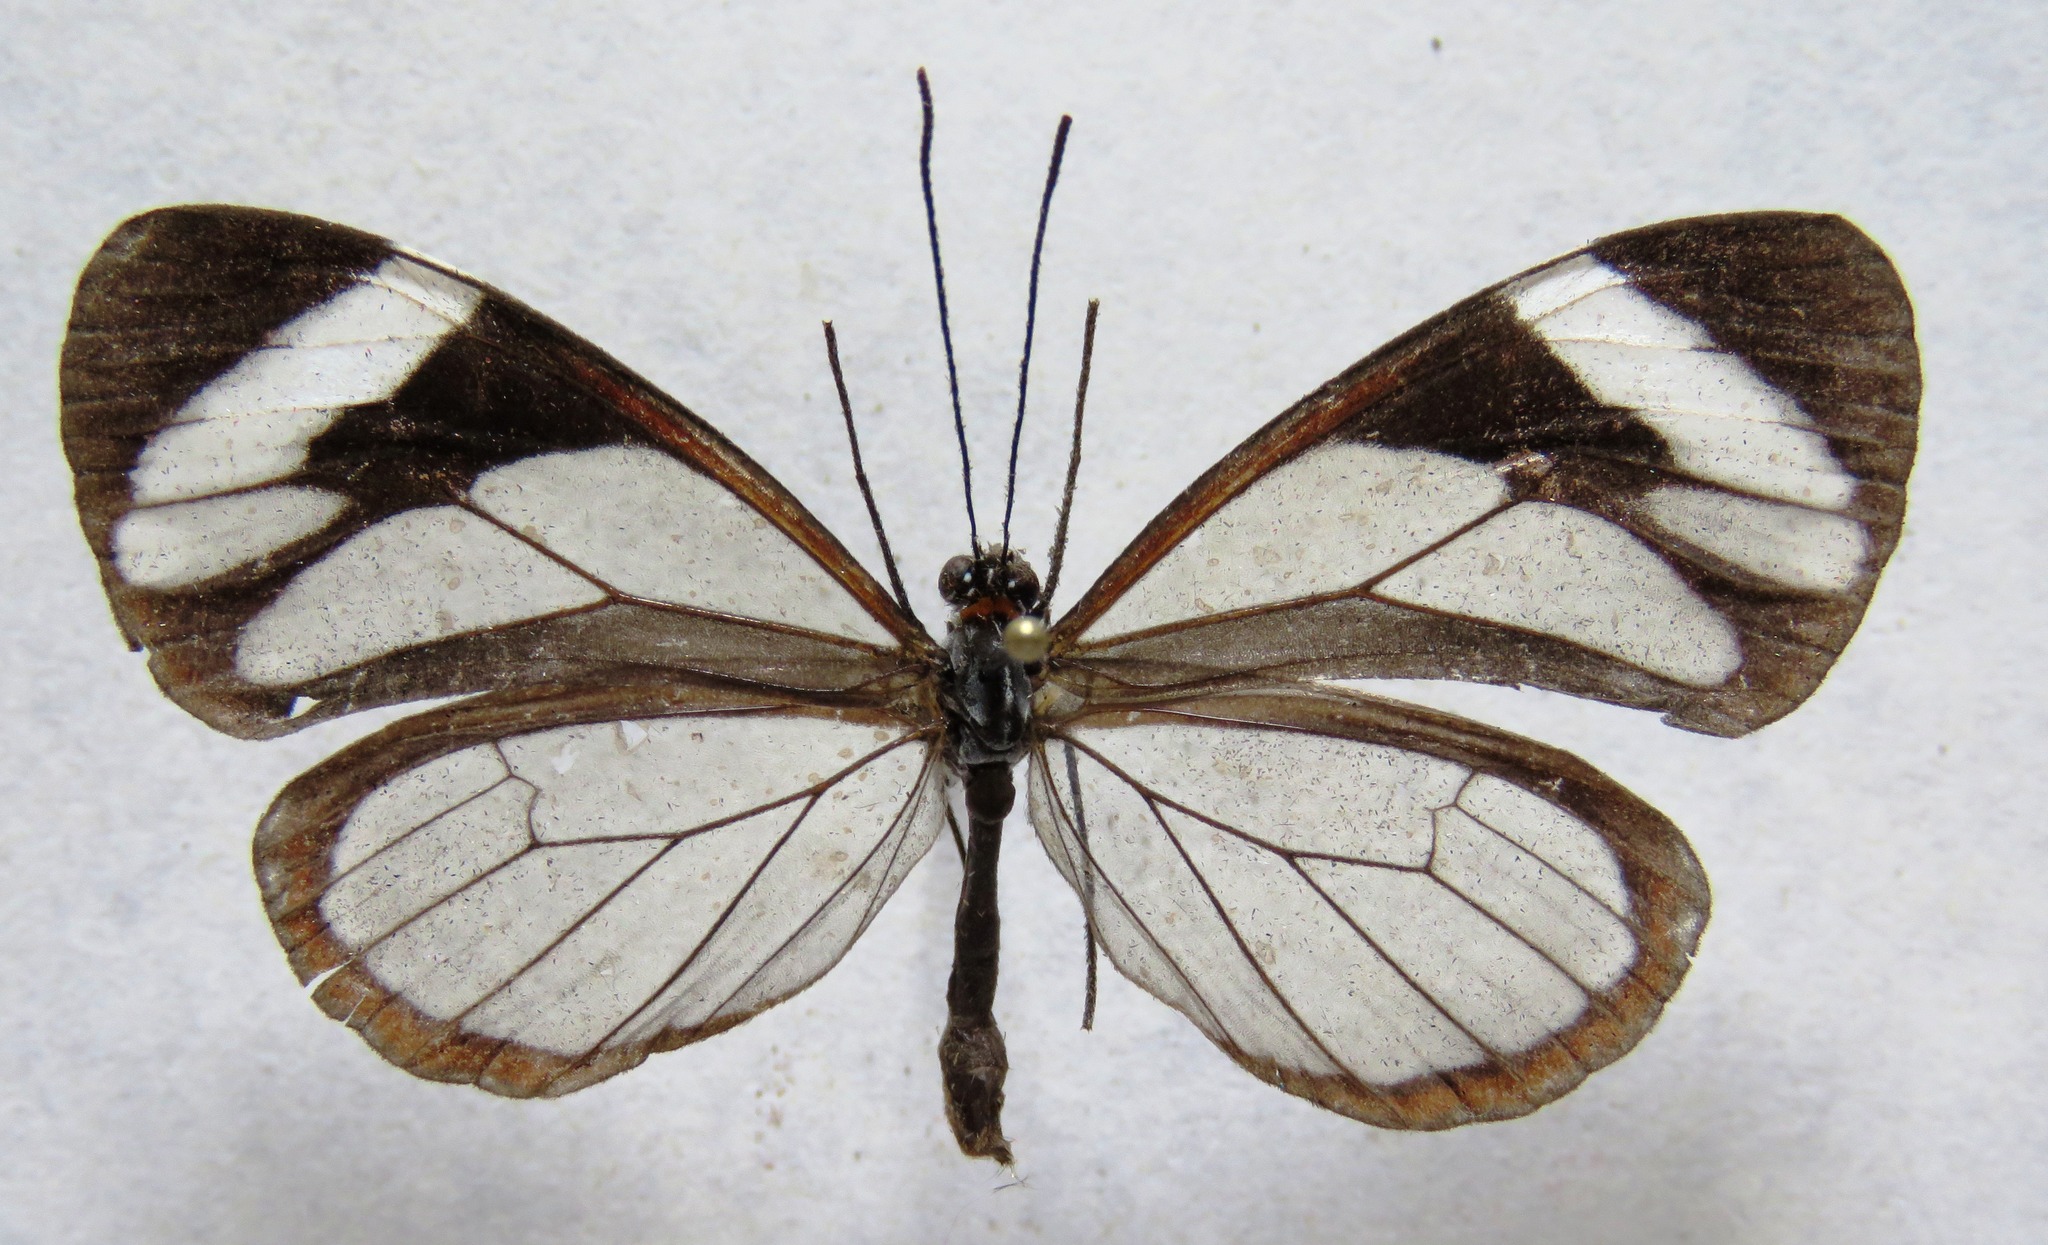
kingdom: Animalia
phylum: Arthropoda
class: Insecta
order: Lepidoptera
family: Nymphalidae
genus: Ithomia
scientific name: Ithomia patilla
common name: Patilla clearwing
